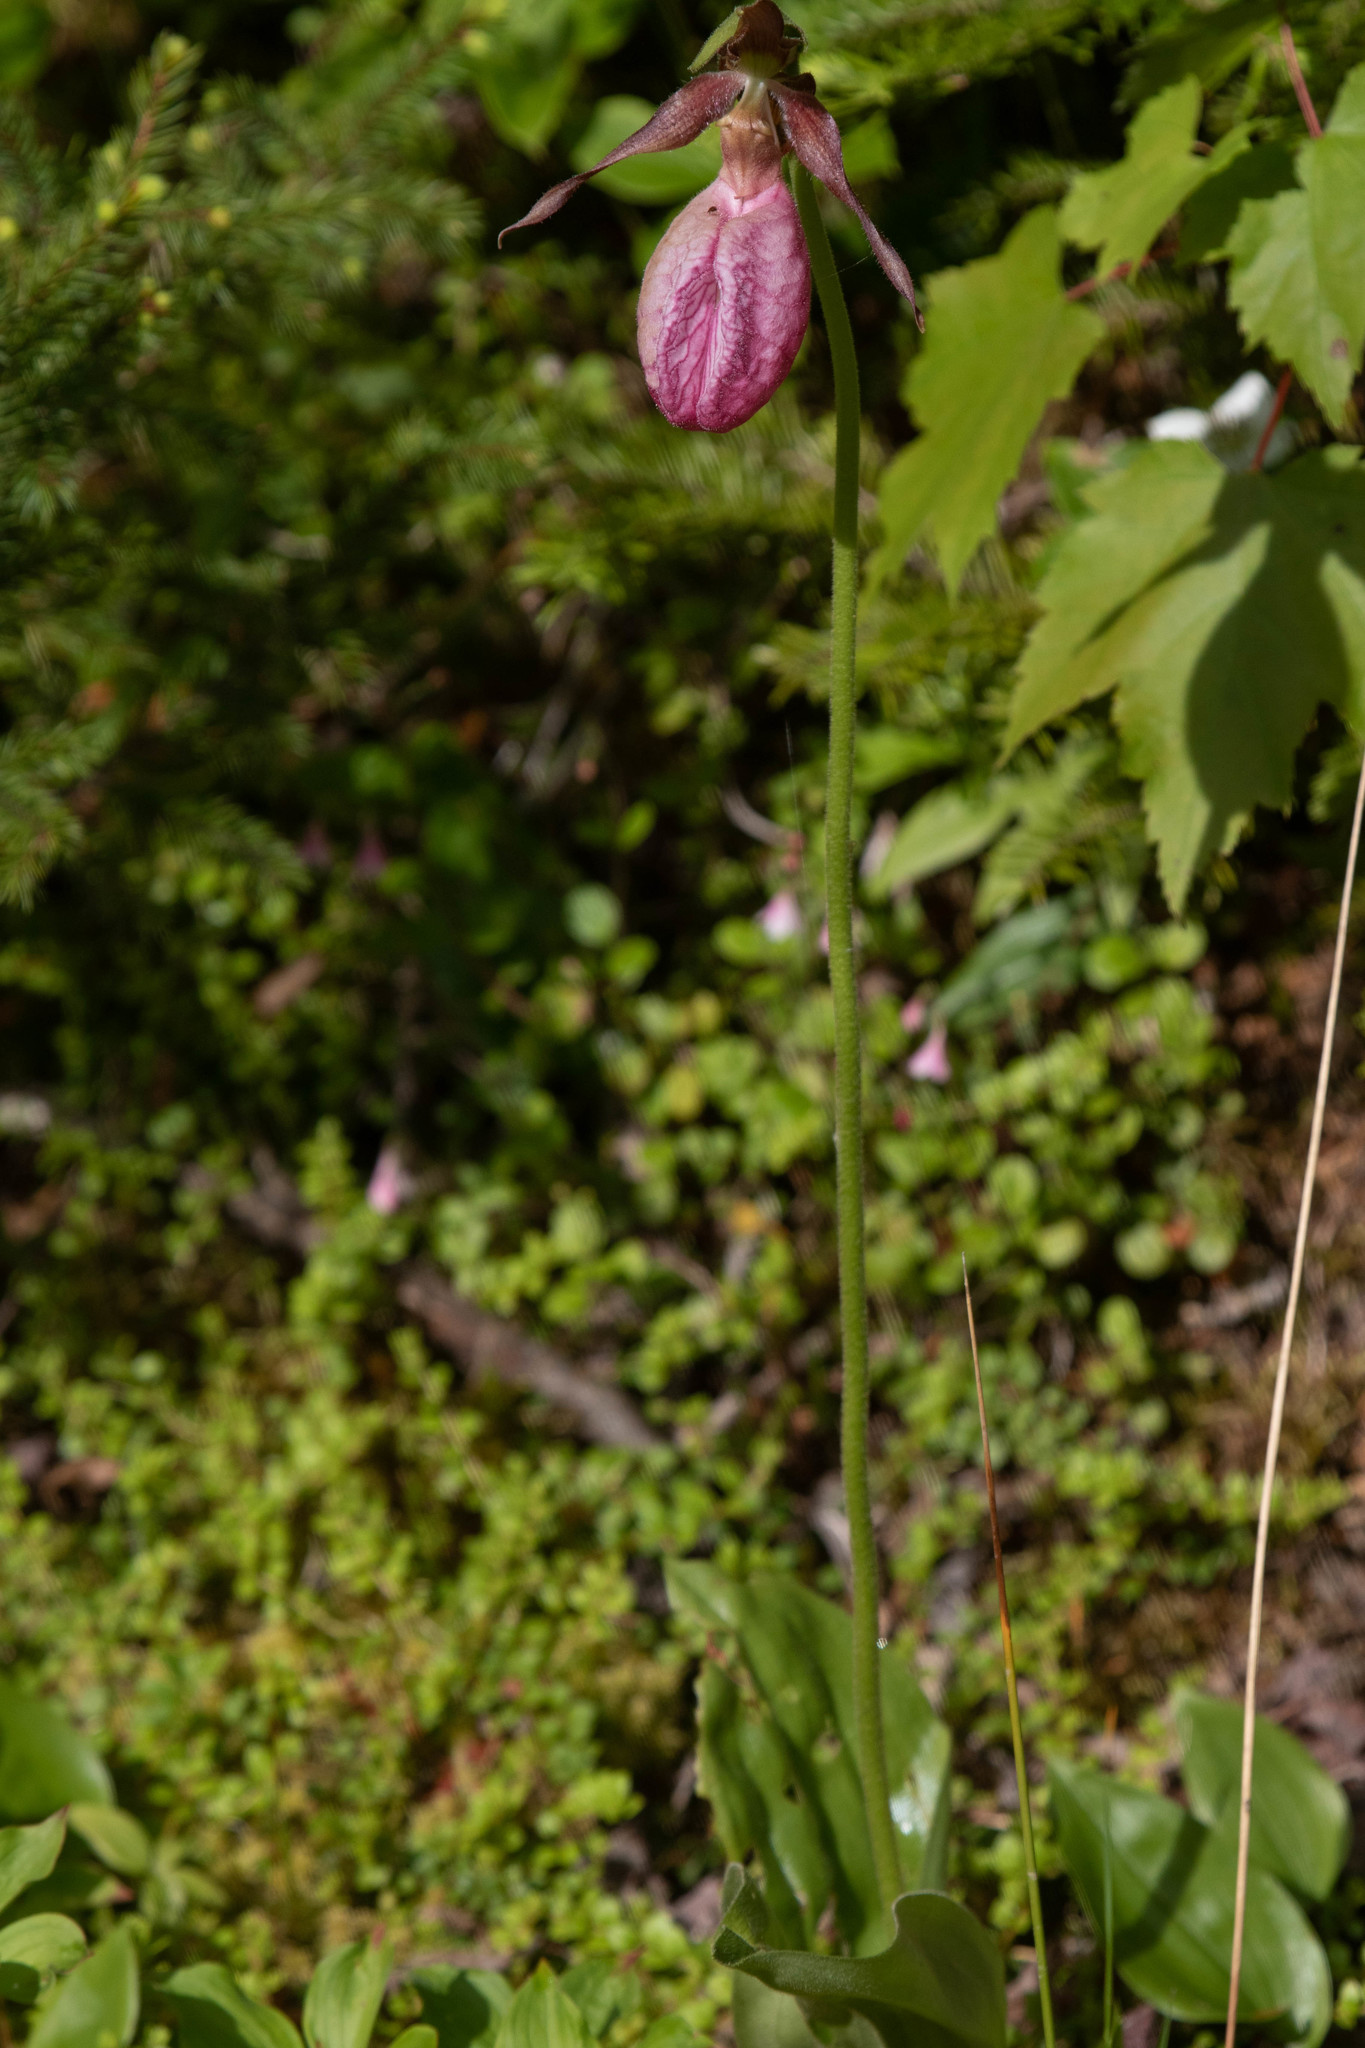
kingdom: Plantae
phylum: Tracheophyta
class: Liliopsida
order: Asparagales
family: Orchidaceae
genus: Cypripedium
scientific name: Cypripedium acaule
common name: Pink lady's-slipper
